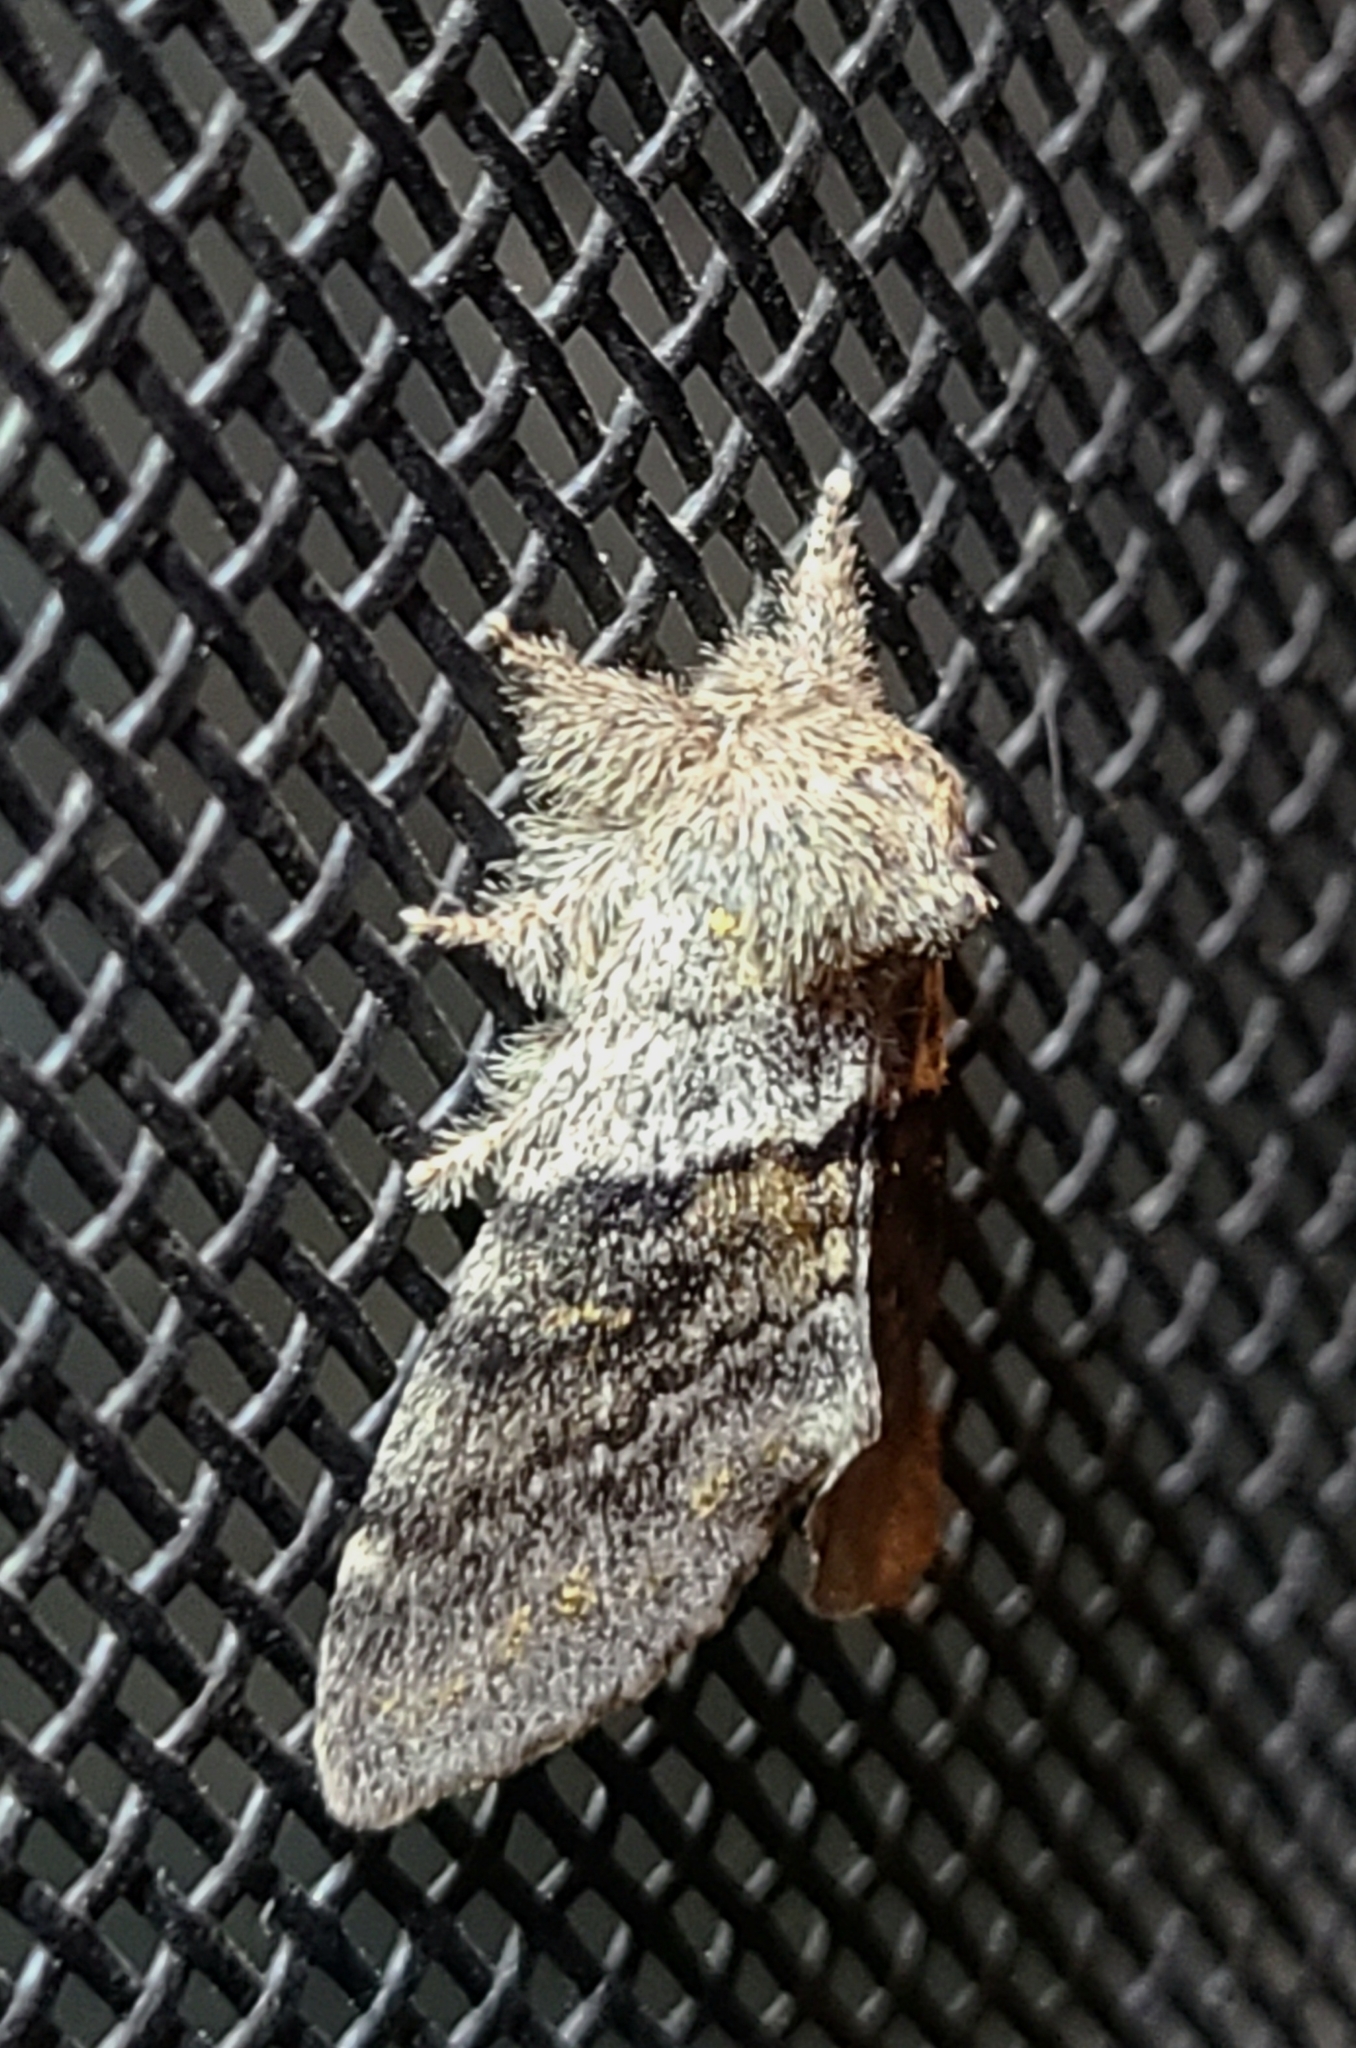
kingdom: Animalia
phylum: Arthropoda
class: Insecta
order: Lepidoptera
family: Notodontidae
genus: Gluphisia
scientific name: Gluphisia severa
